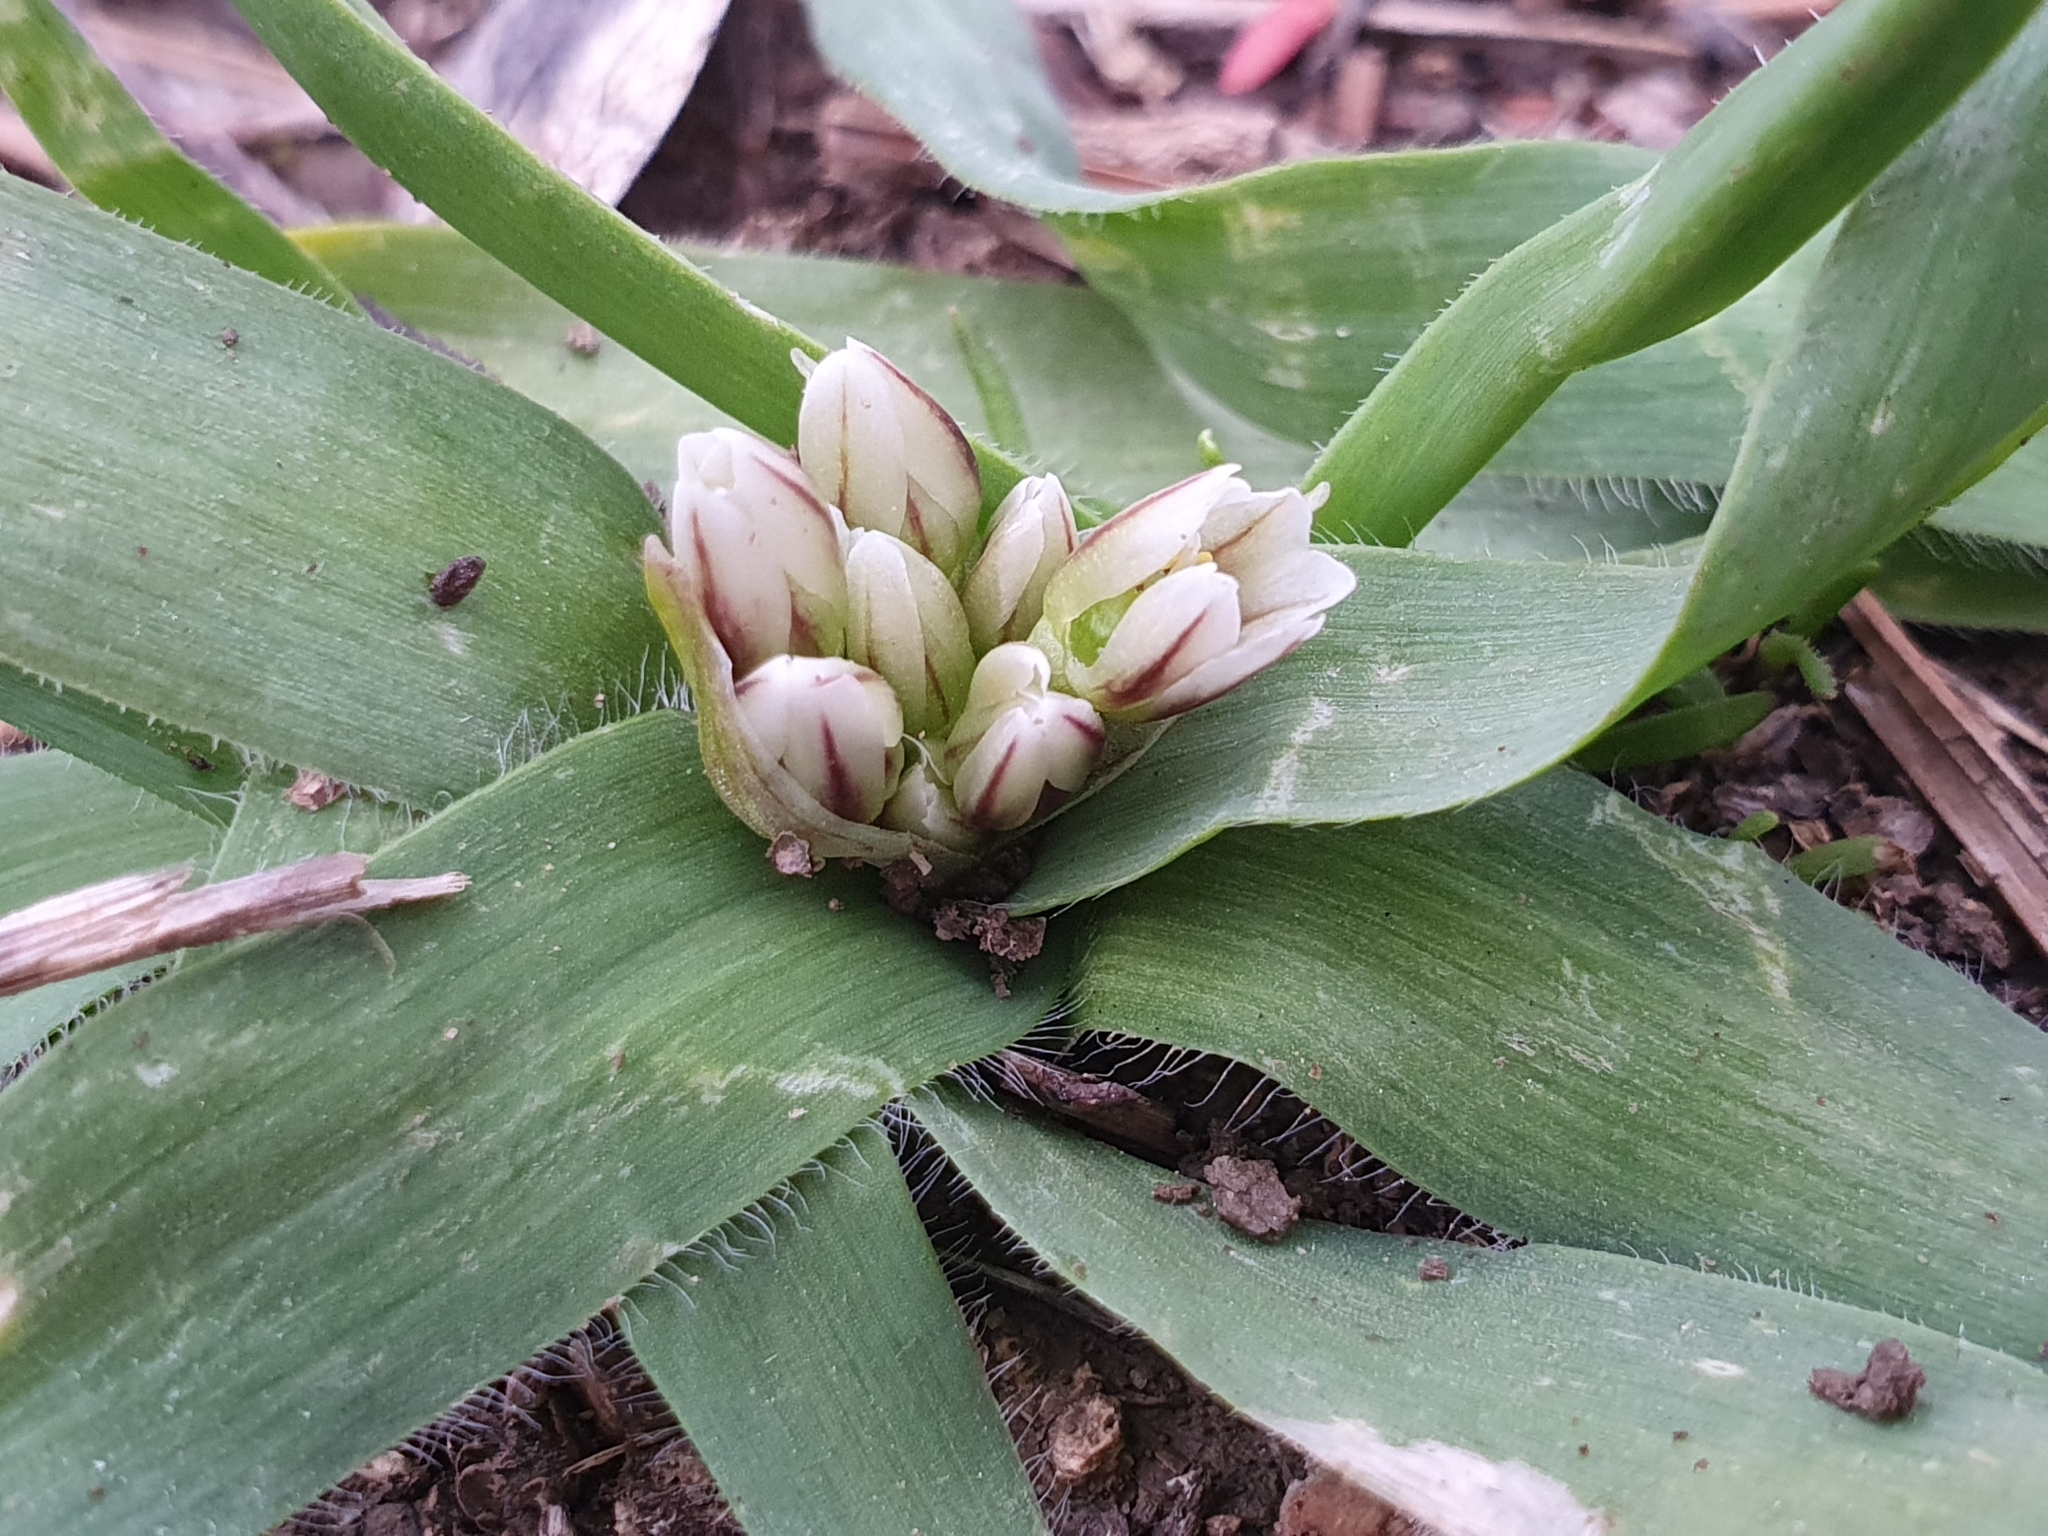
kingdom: Plantae
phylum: Tracheophyta
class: Liliopsida
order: Asparagales
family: Amaryllidaceae
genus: Allium
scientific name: Allium chamaemoly
